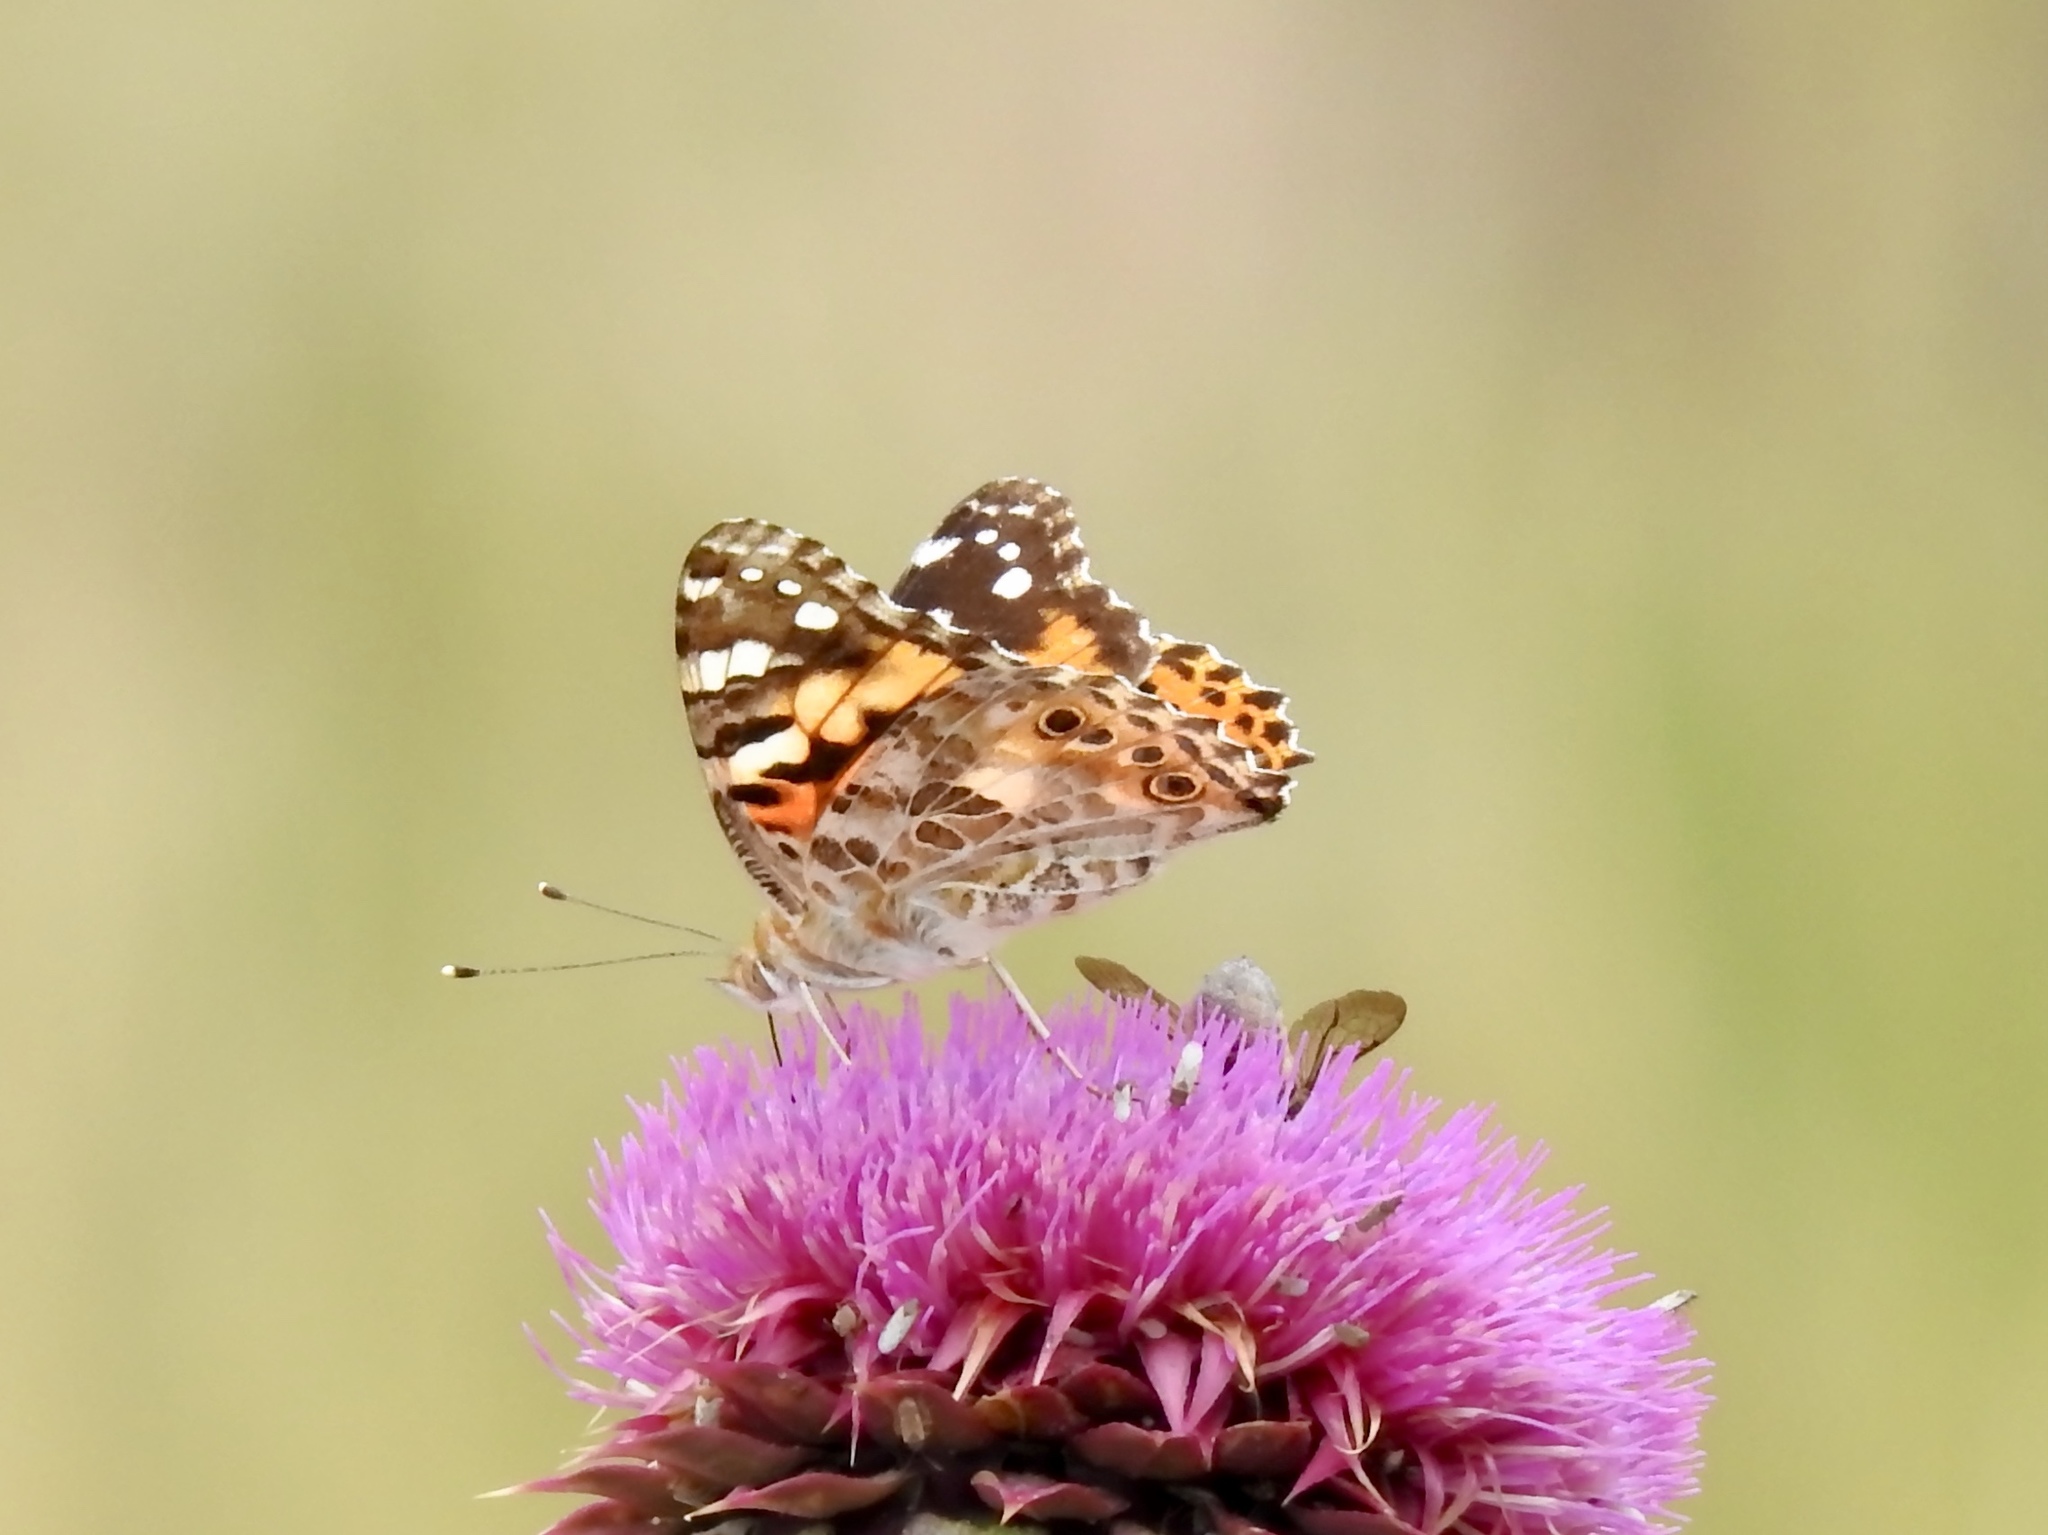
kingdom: Animalia
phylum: Arthropoda
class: Insecta
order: Lepidoptera
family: Nymphalidae
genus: Vanessa
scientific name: Vanessa cardui
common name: Painted lady
